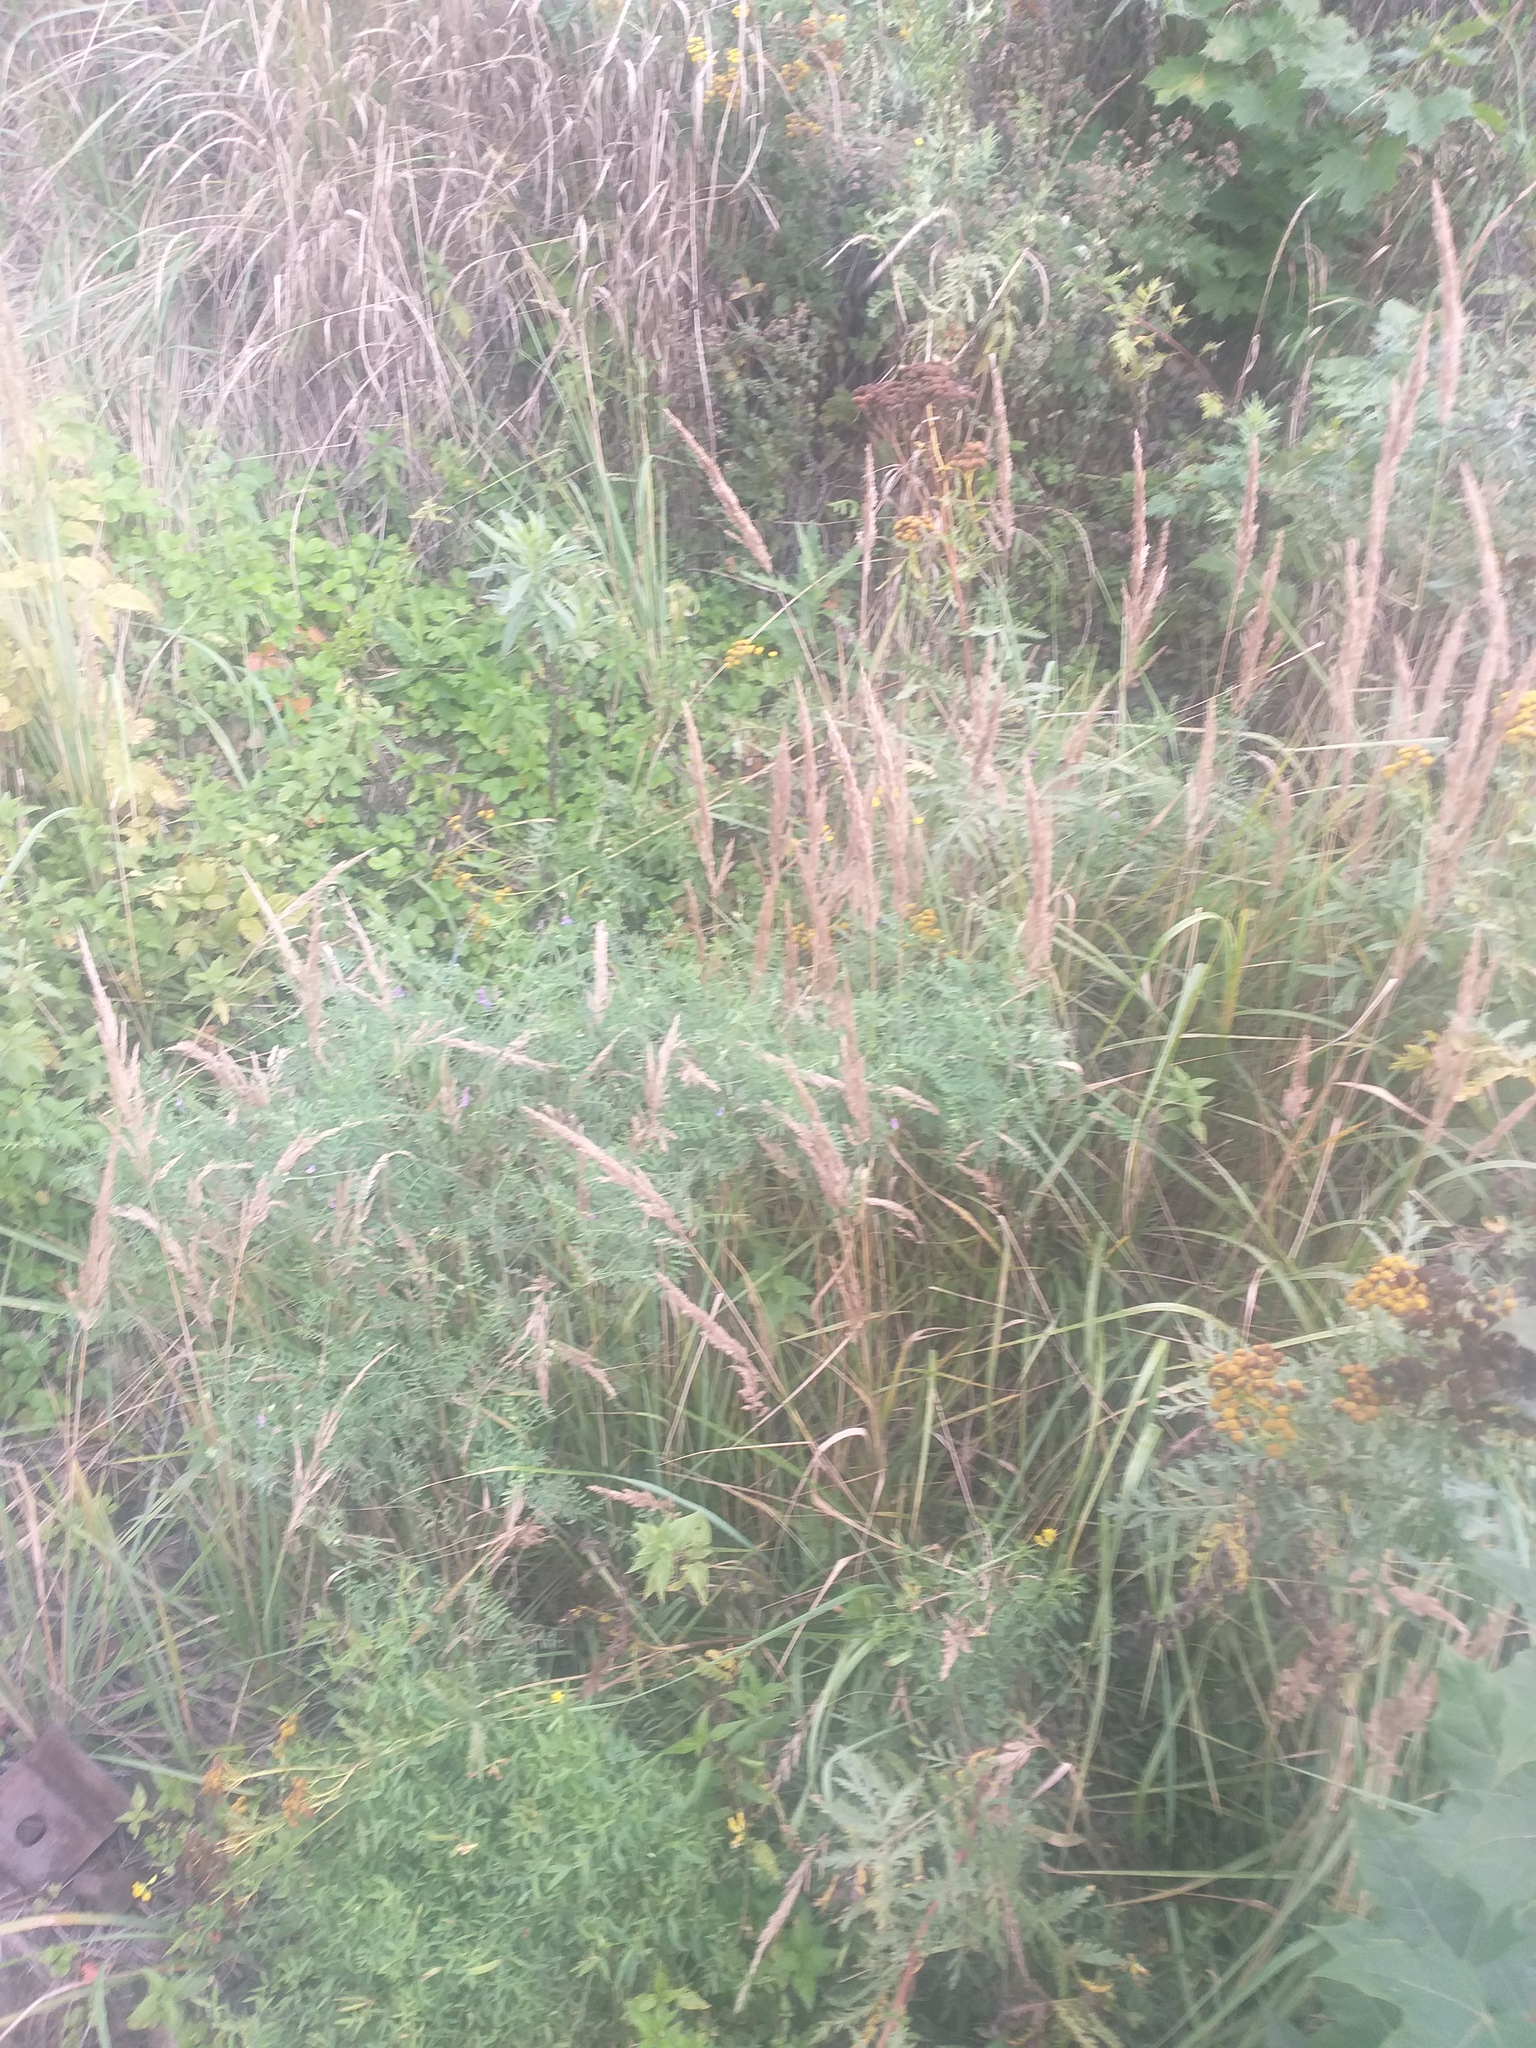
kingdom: Plantae
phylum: Tracheophyta
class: Liliopsida
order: Poales
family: Poaceae
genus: Calamagrostis
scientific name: Calamagrostis epigejos
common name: Wood small-reed
